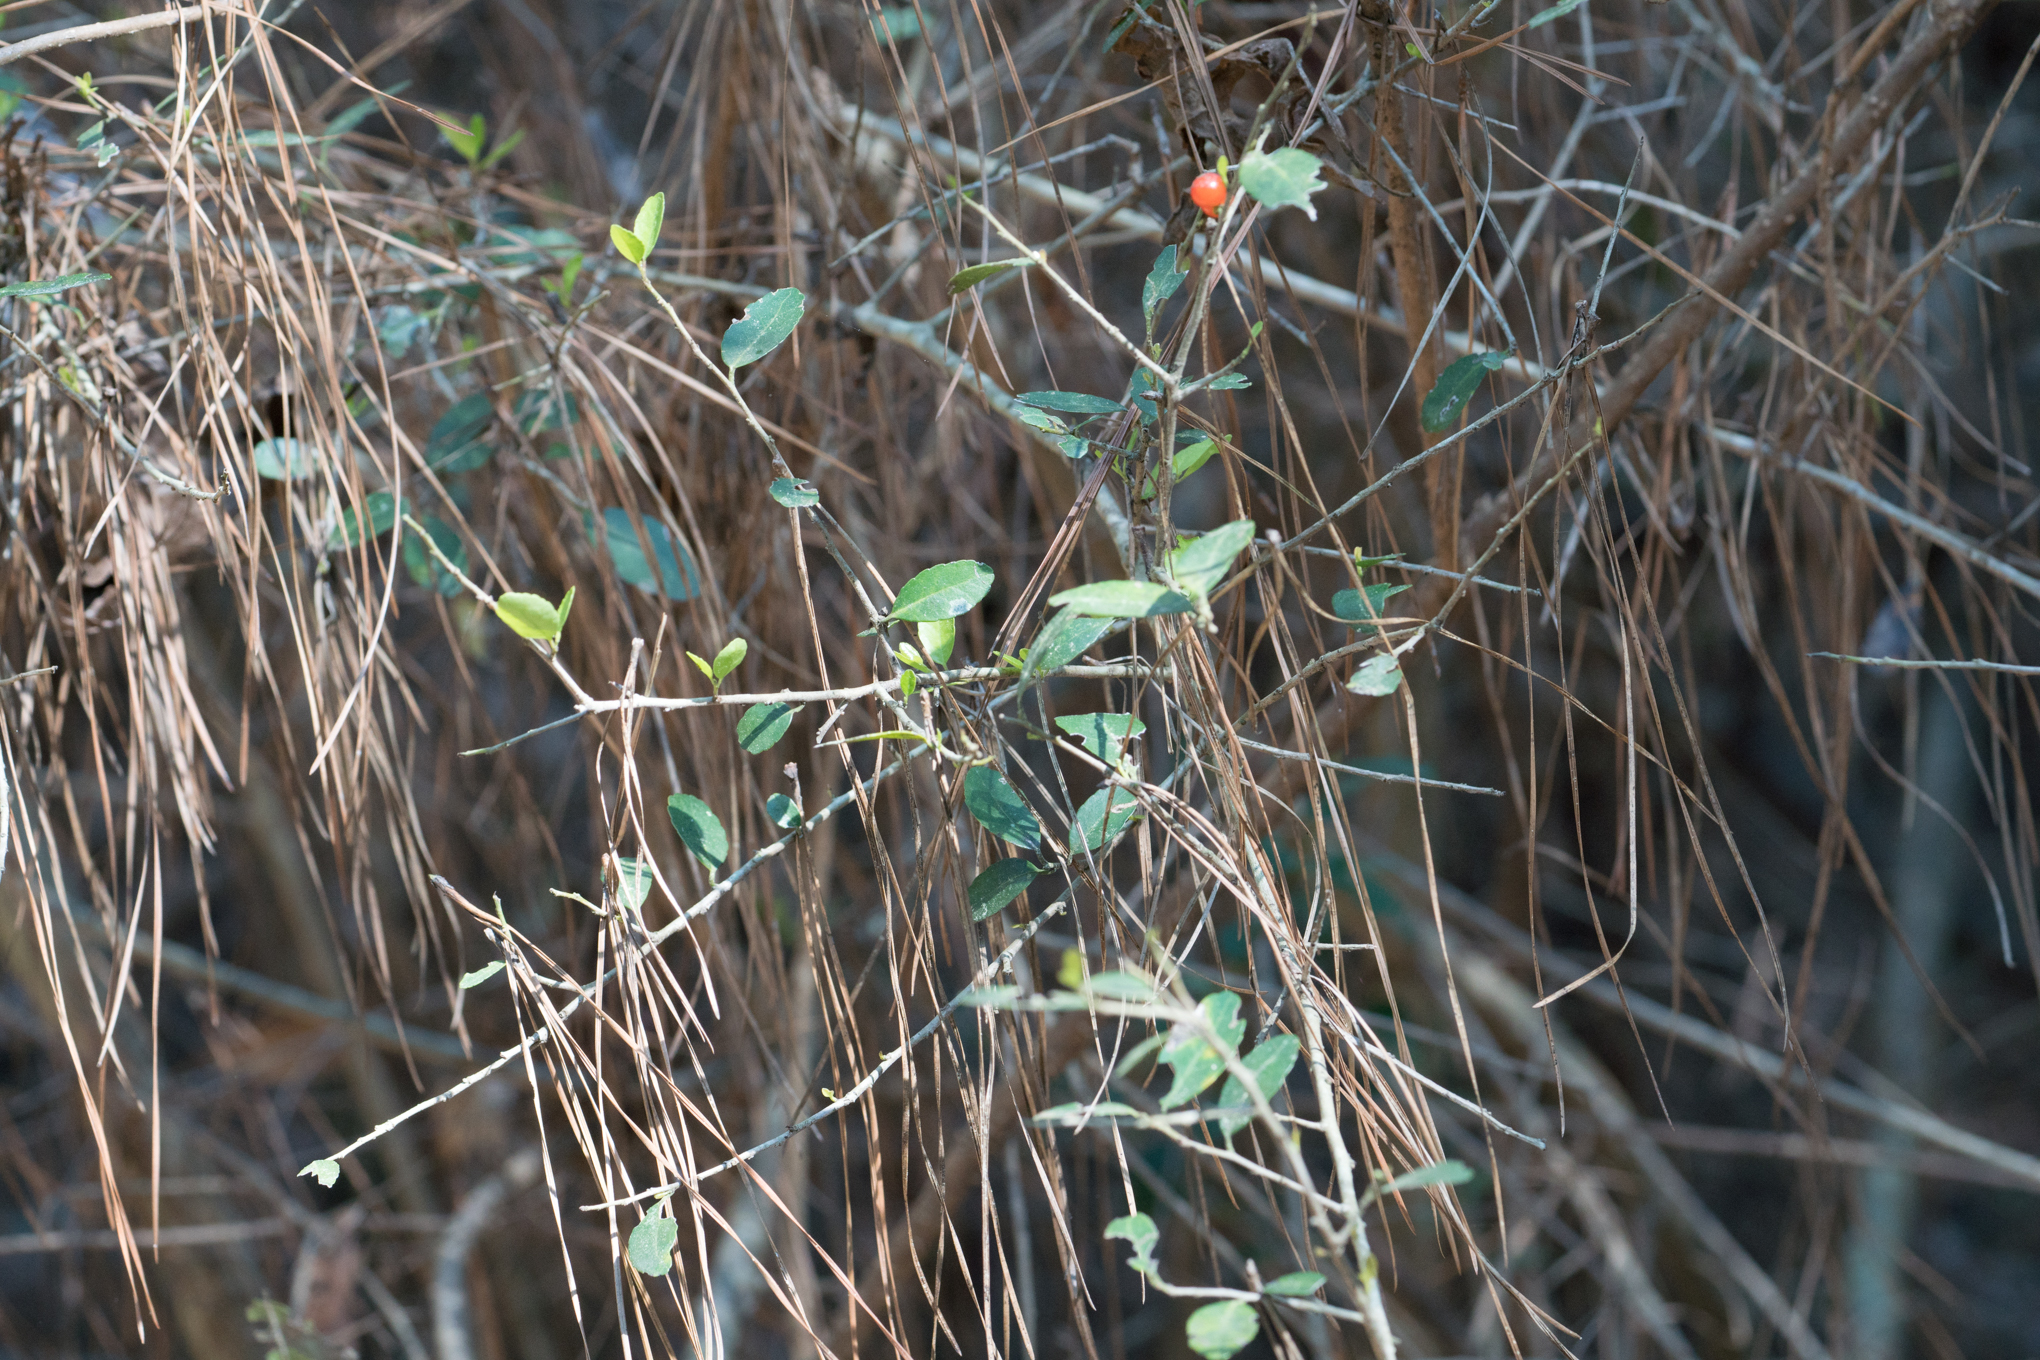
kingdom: Plantae
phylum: Tracheophyta
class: Magnoliopsida
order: Aquifoliales
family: Aquifoliaceae
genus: Ilex
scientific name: Ilex vomitoria
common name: Yaupon holly
